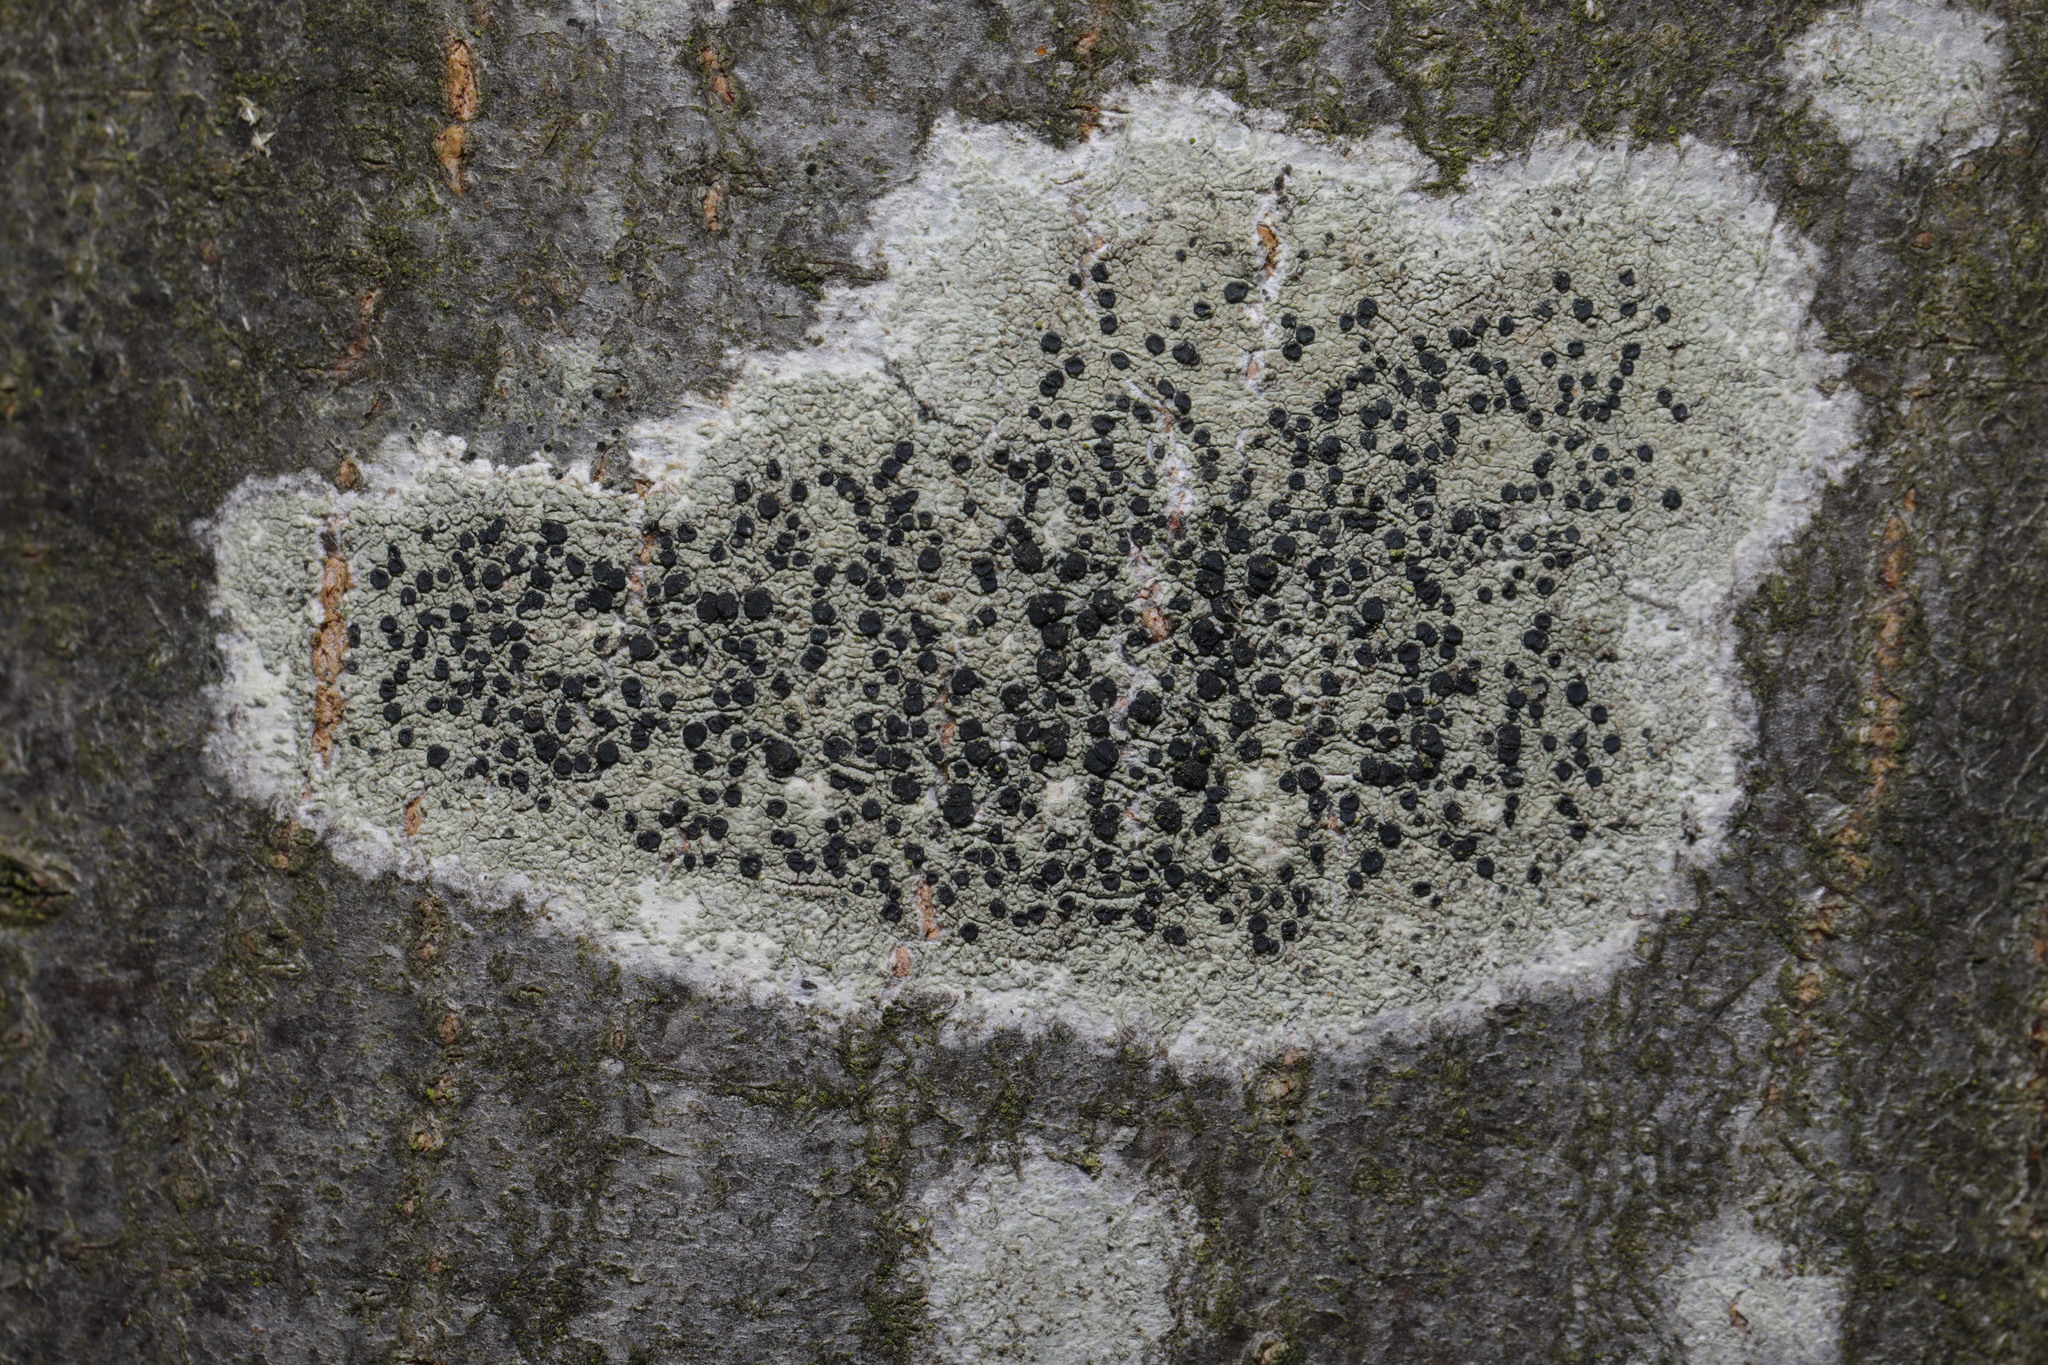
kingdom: Fungi
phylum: Ascomycota
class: Lecanoromycetes
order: Lecanorales
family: Lecanoraceae
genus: Lecidella
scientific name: Lecidella elaeochroma
